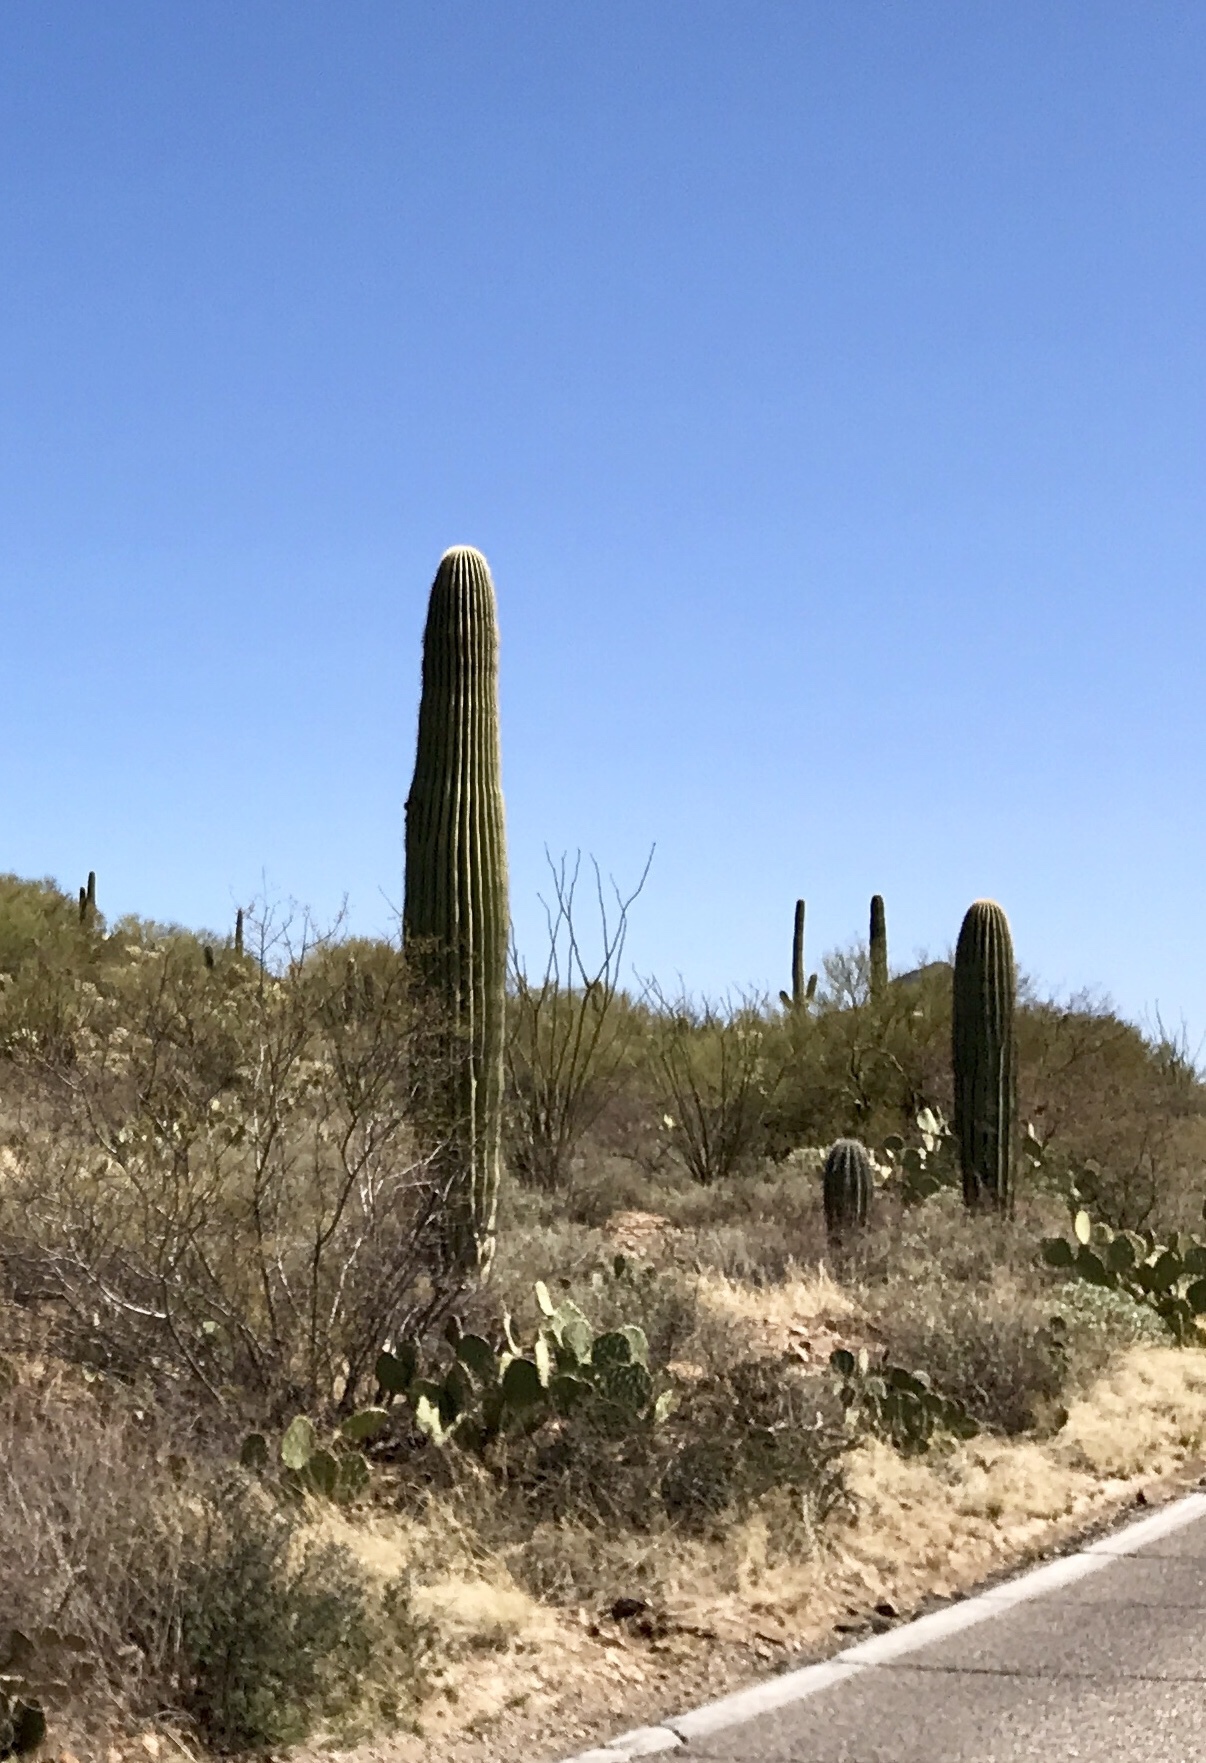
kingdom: Plantae
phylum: Tracheophyta
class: Magnoliopsida
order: Caryophyllales
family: Cactaceae
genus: Carnegiea
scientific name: Carnegiea gigantea
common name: Saguaro
